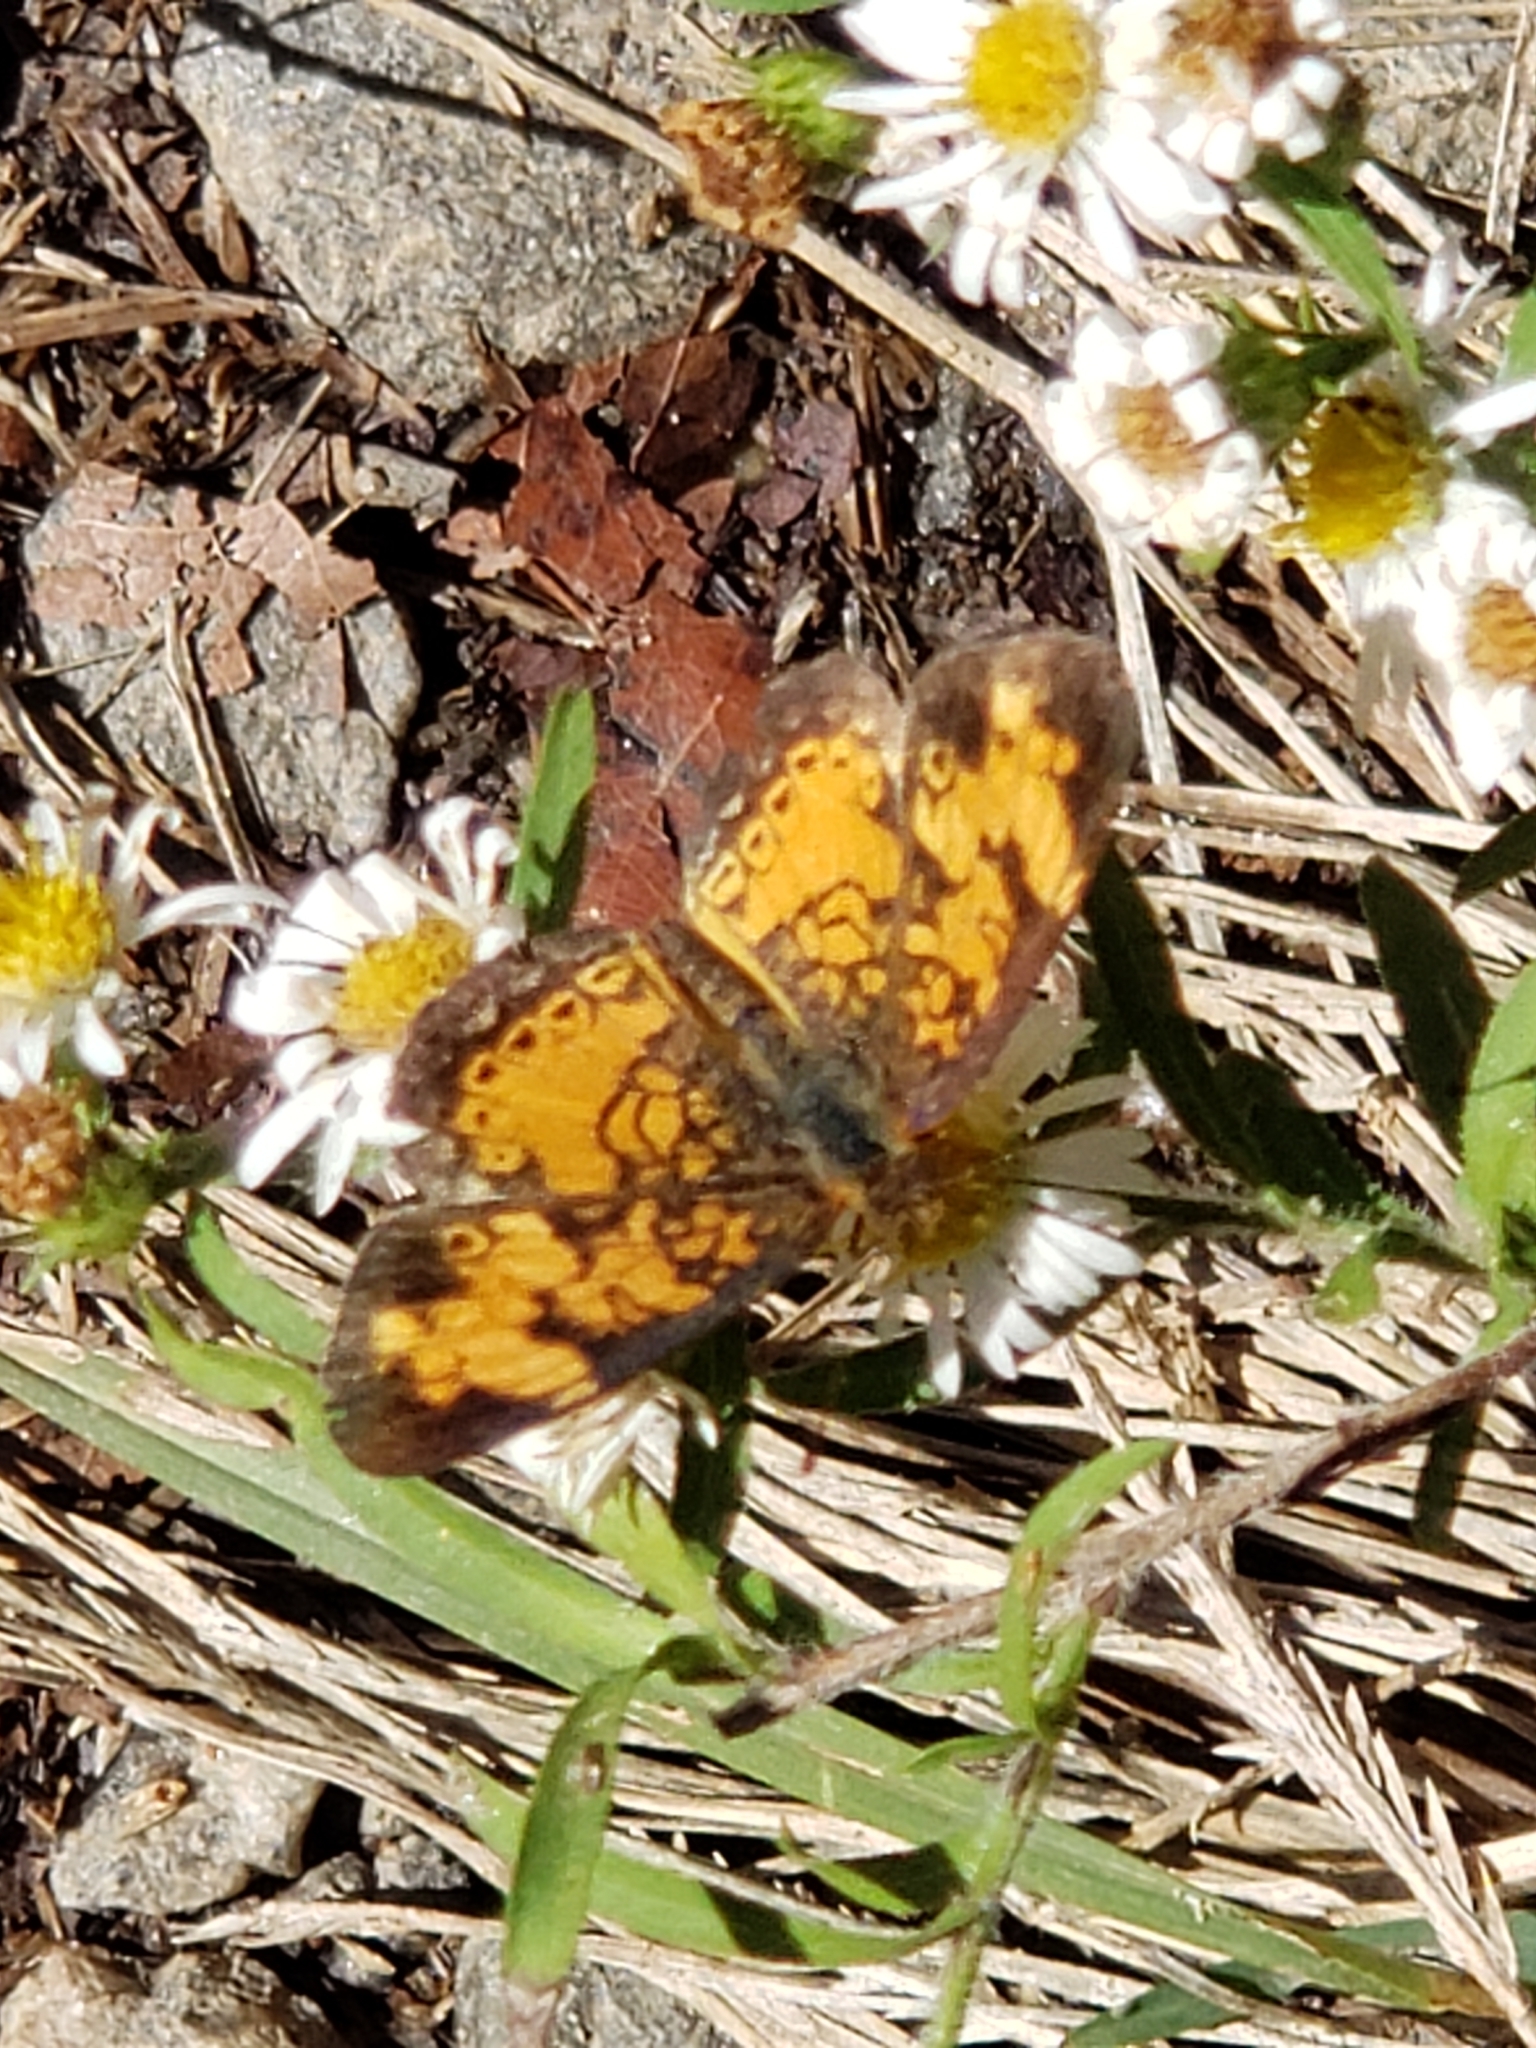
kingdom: Animalia
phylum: Arthropoda
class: Insecta
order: Lepidoptera
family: Nymphalidae
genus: Phyciodes
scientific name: Phyciodes tharos
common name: Pearl crescent
